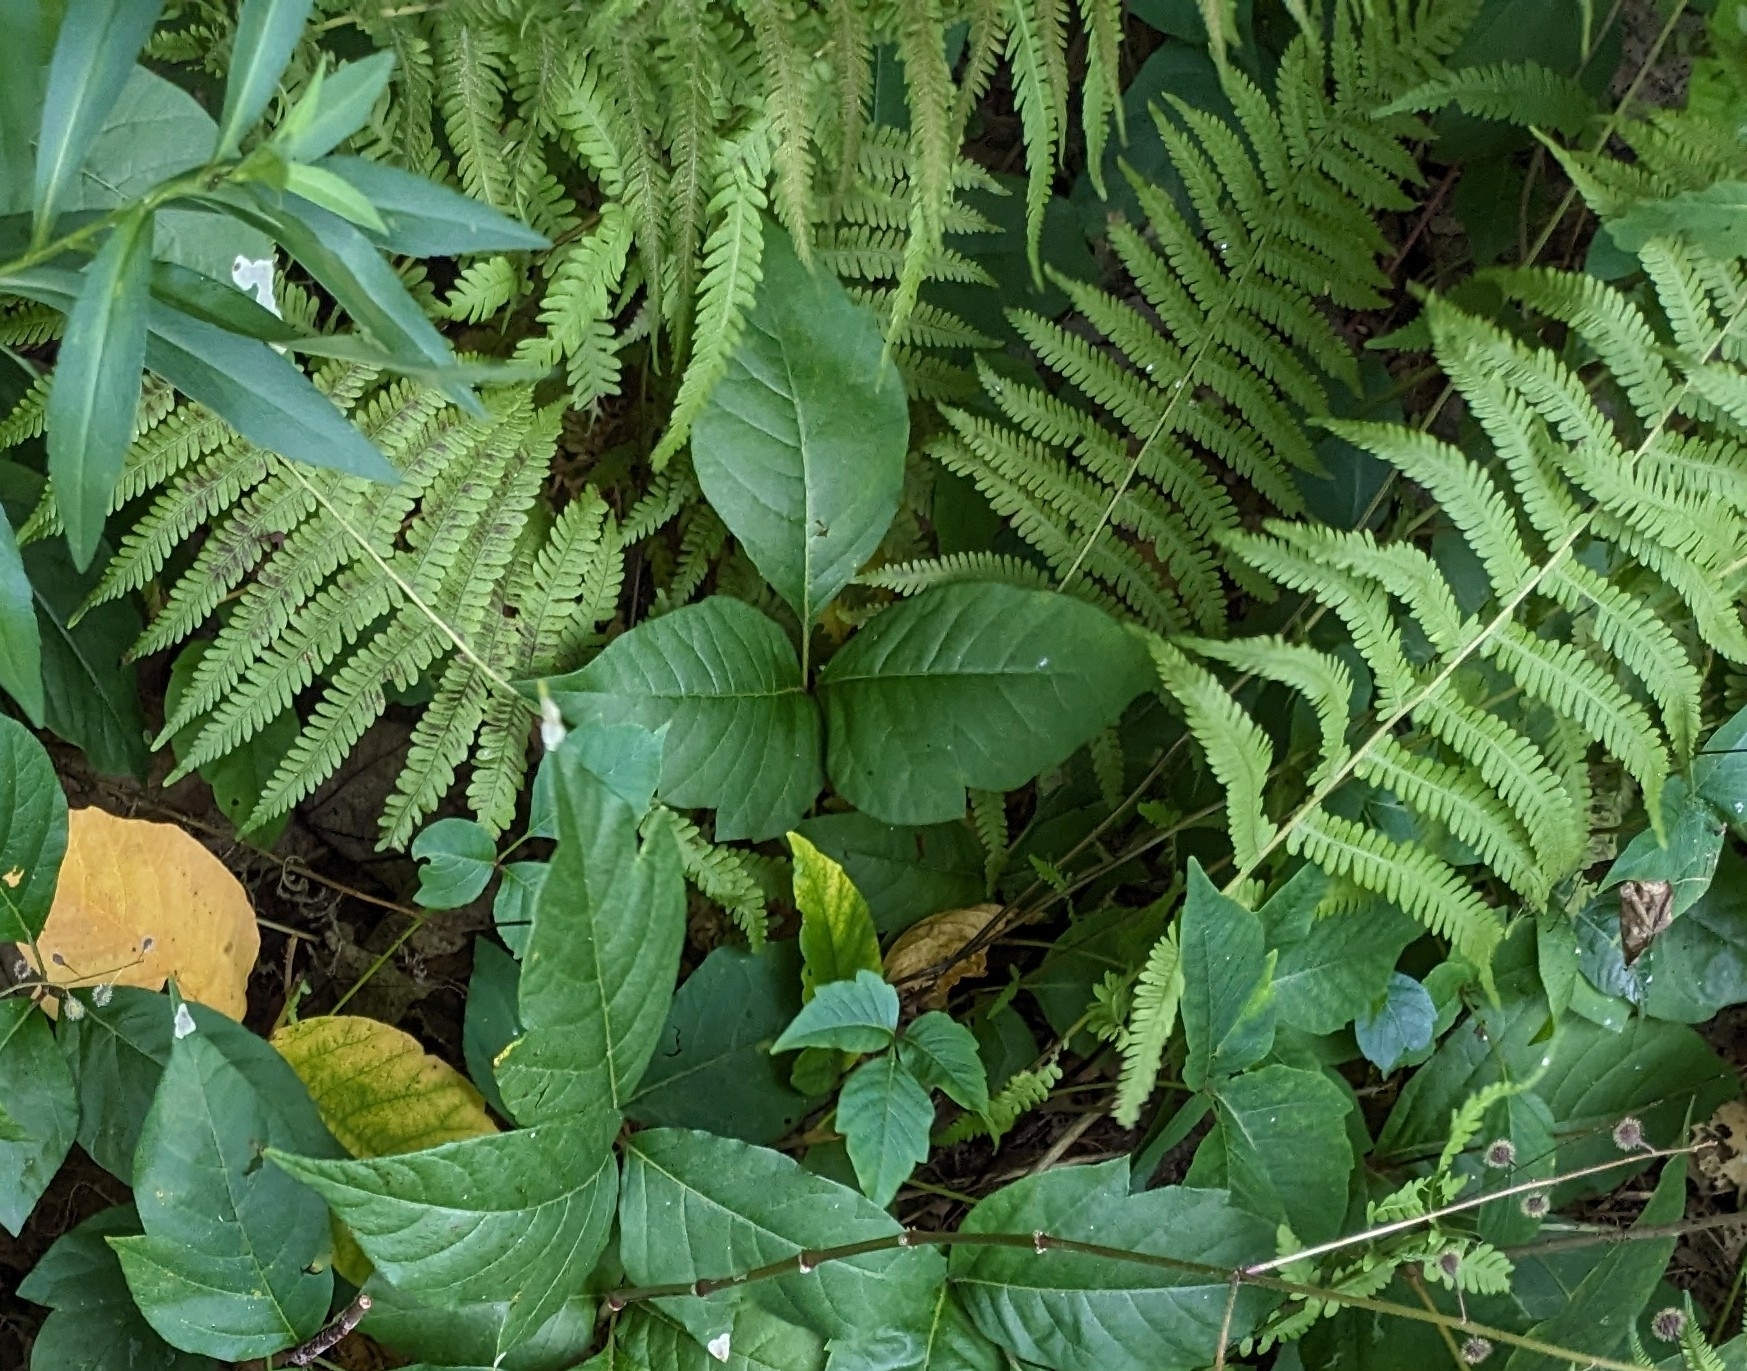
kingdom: Plantae
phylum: Tracheophyta
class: Polypodiopsida
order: Polypodiales
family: Thelypteridaceae
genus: Amauropelta
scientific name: Amauropelta noveboracensis
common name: New york fern
